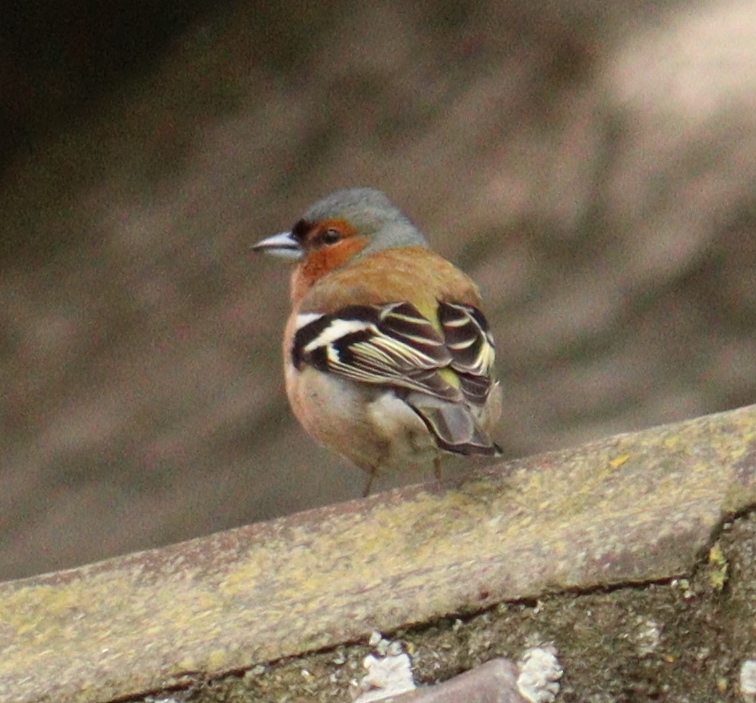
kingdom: Animalia
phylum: Chordata
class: Aves
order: Passeriformes
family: Fringillidae
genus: Fringilla
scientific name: Fringilla coelebs
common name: Common chaffinch
